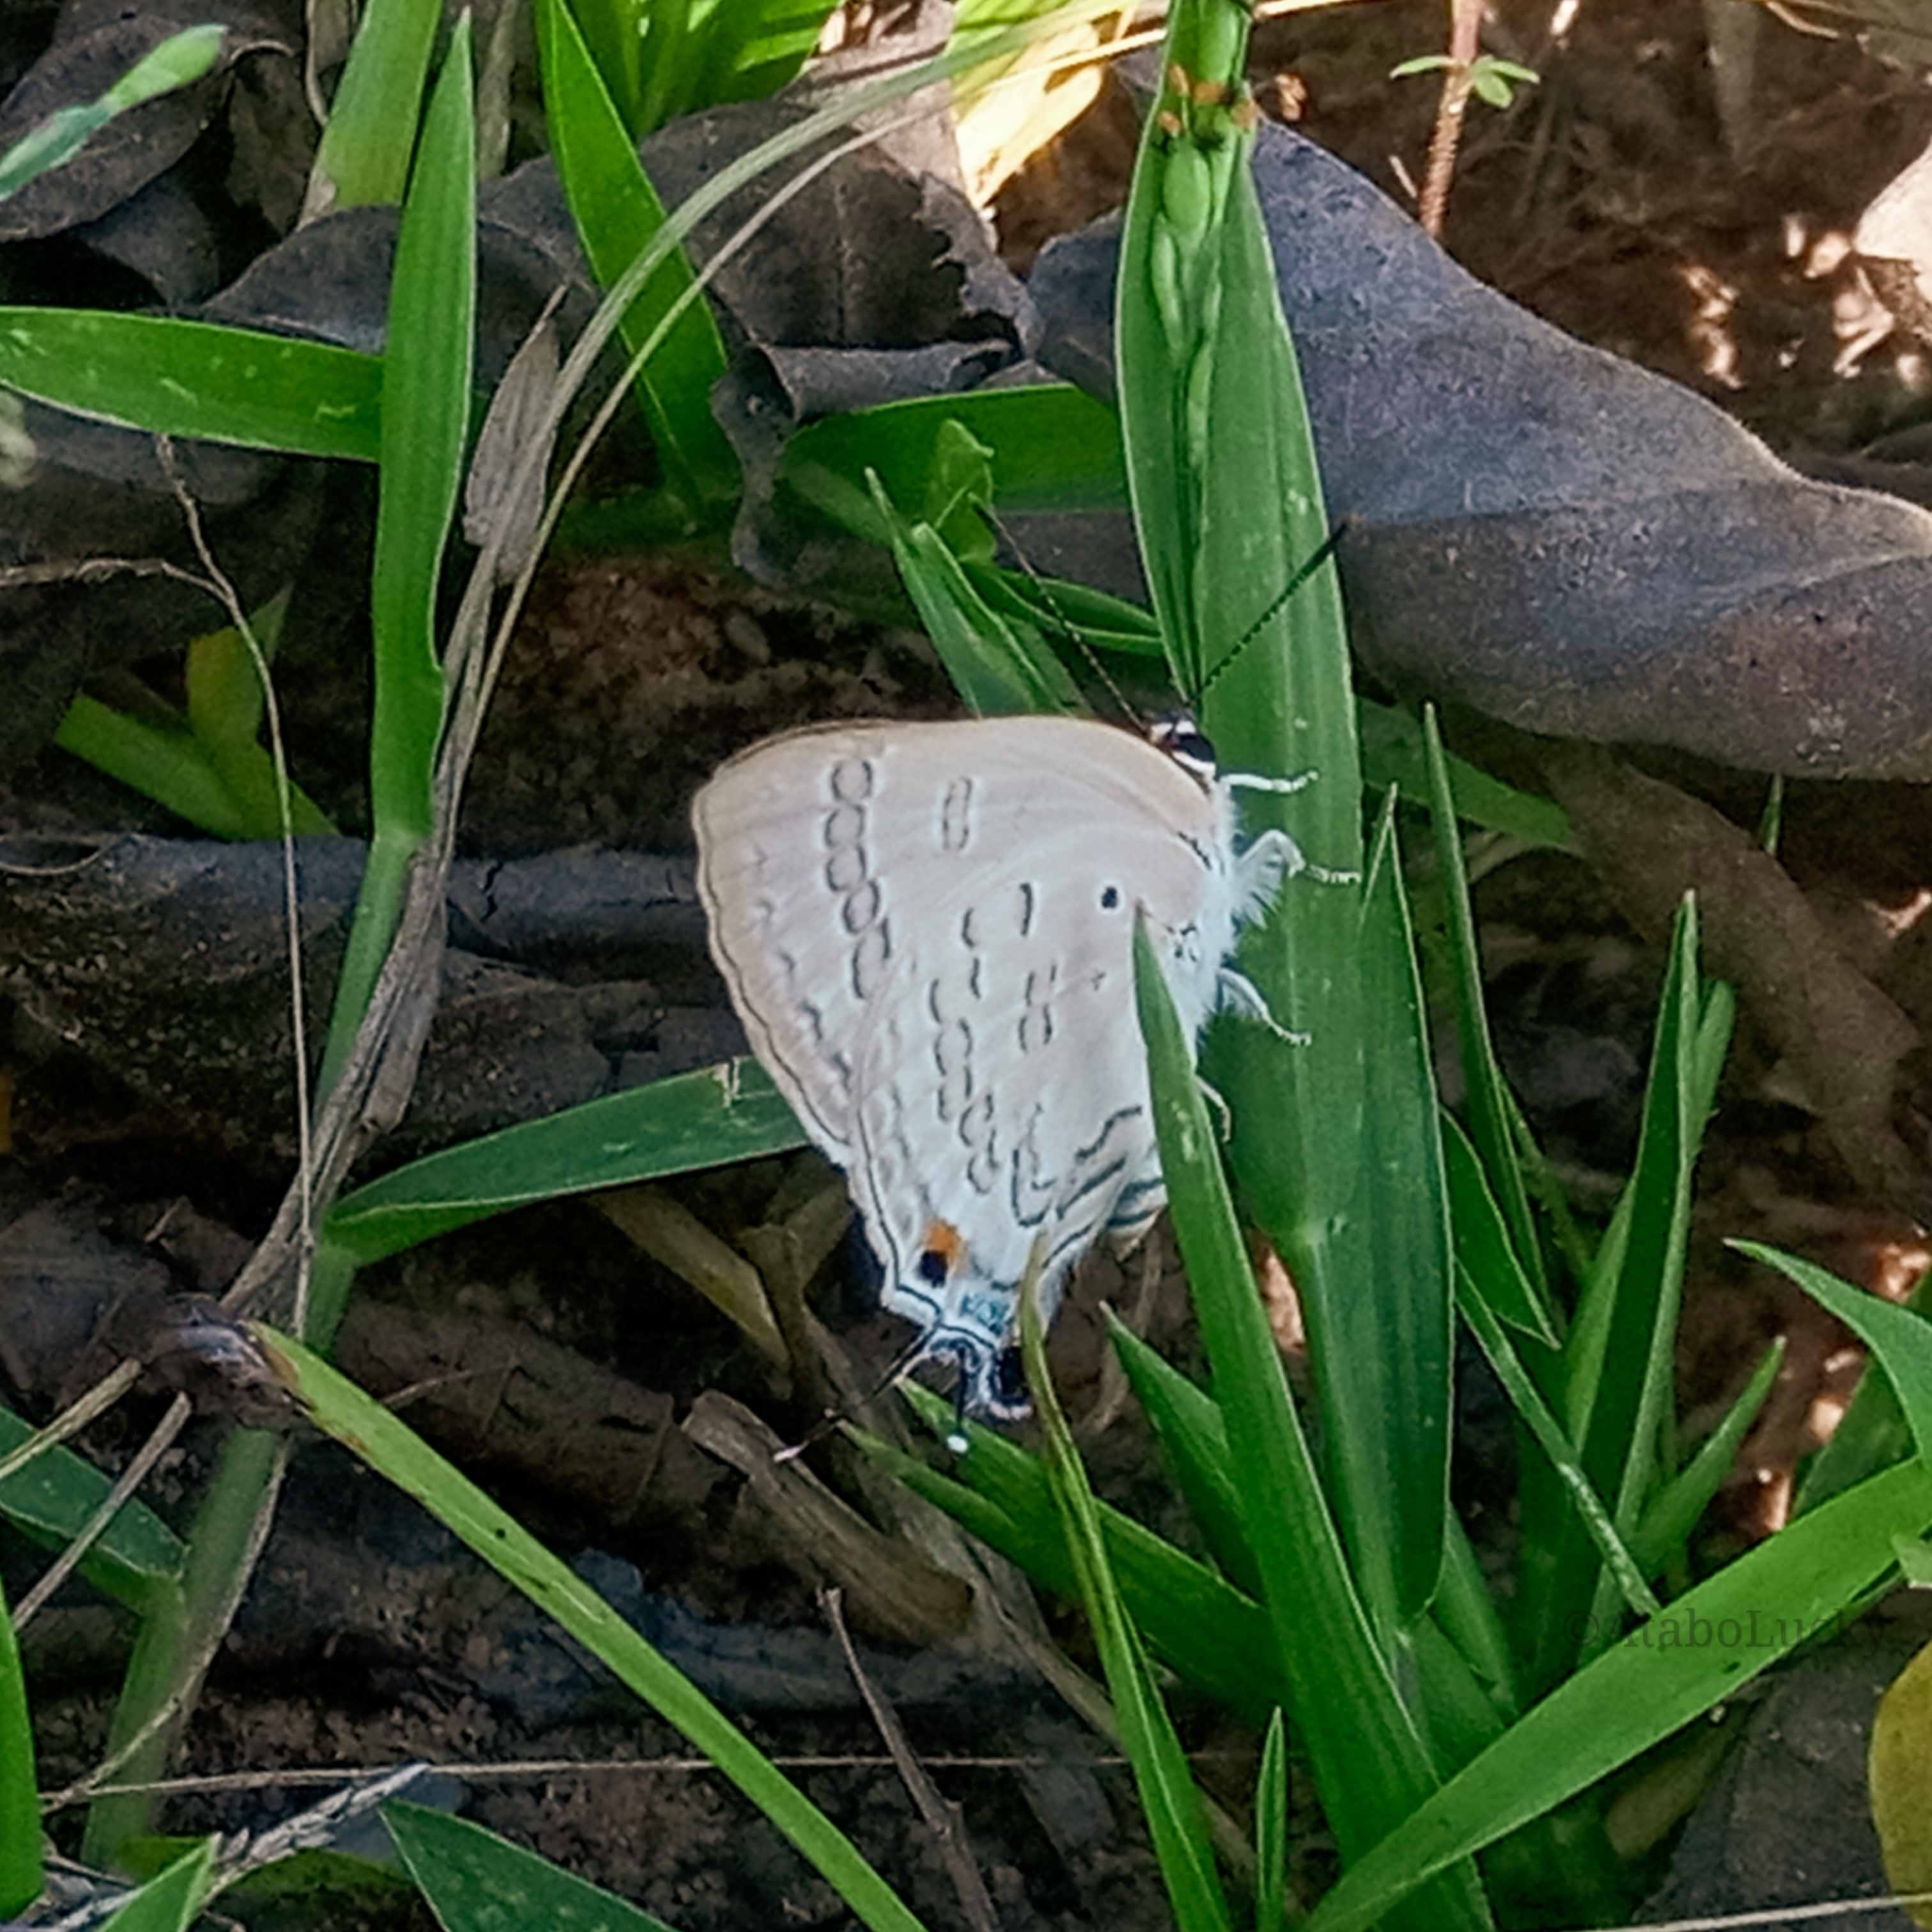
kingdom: Animalia
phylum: Arthropoda
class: Insecta
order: Lepidoptera
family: Lycaenidae
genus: Deudorix
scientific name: Deudorix antalus
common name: Brown playboy
